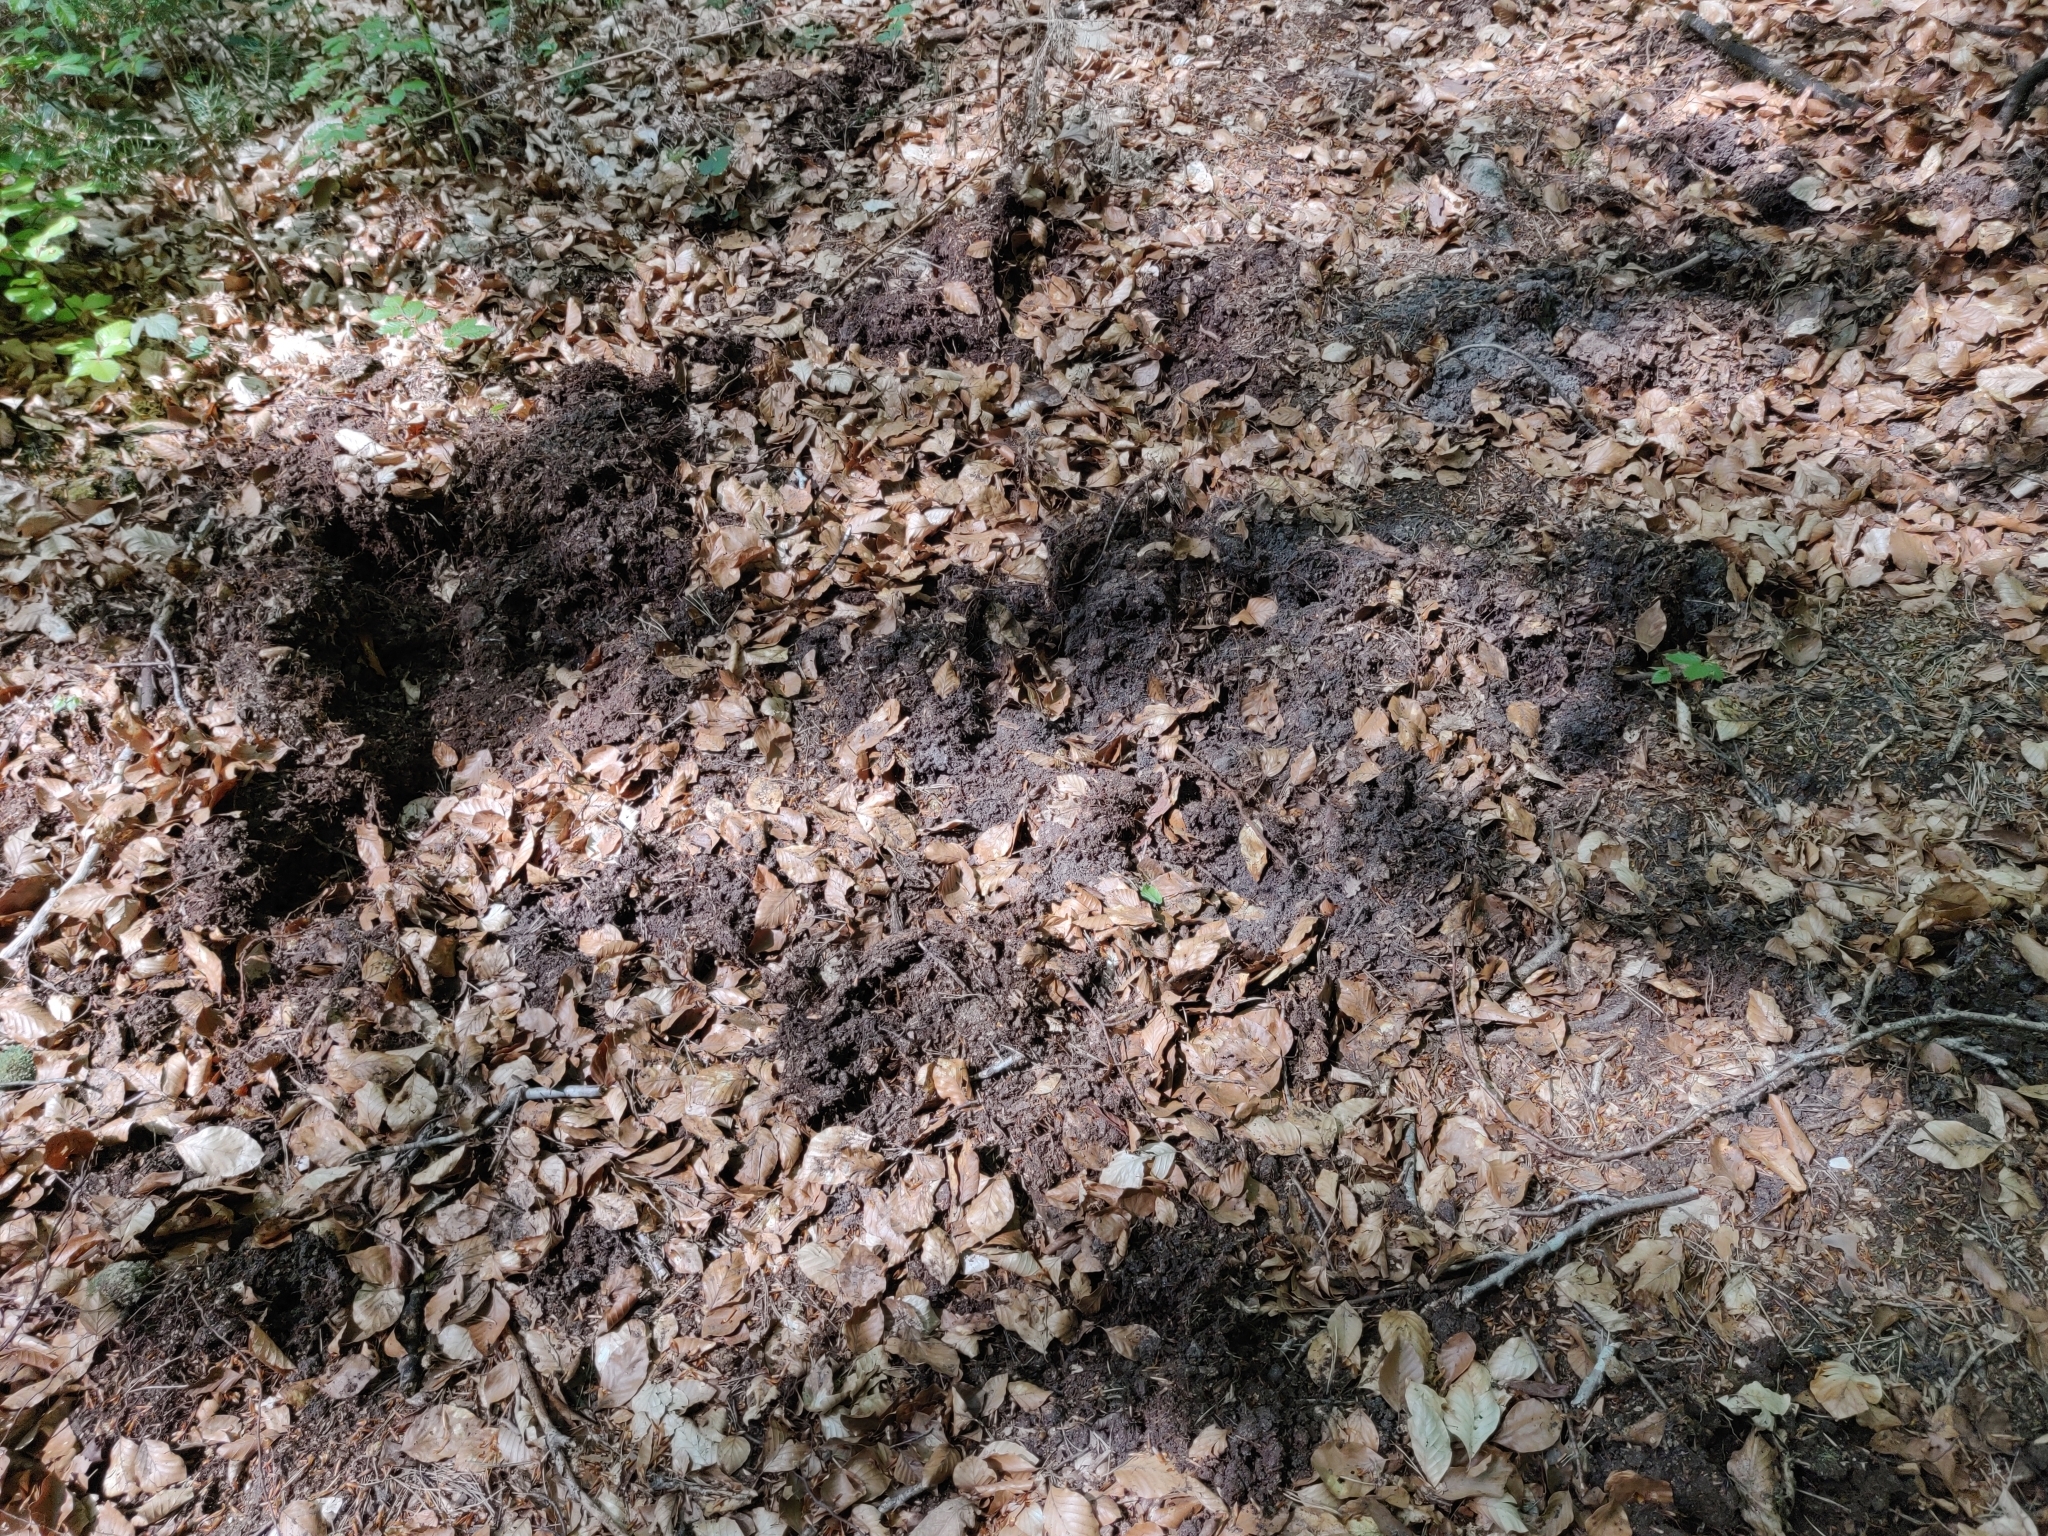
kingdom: Animalia
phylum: Chordata
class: Mammalia
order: Artiodactyla
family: Suidae
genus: Sus
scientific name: Sus scrofa
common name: Wild boar
